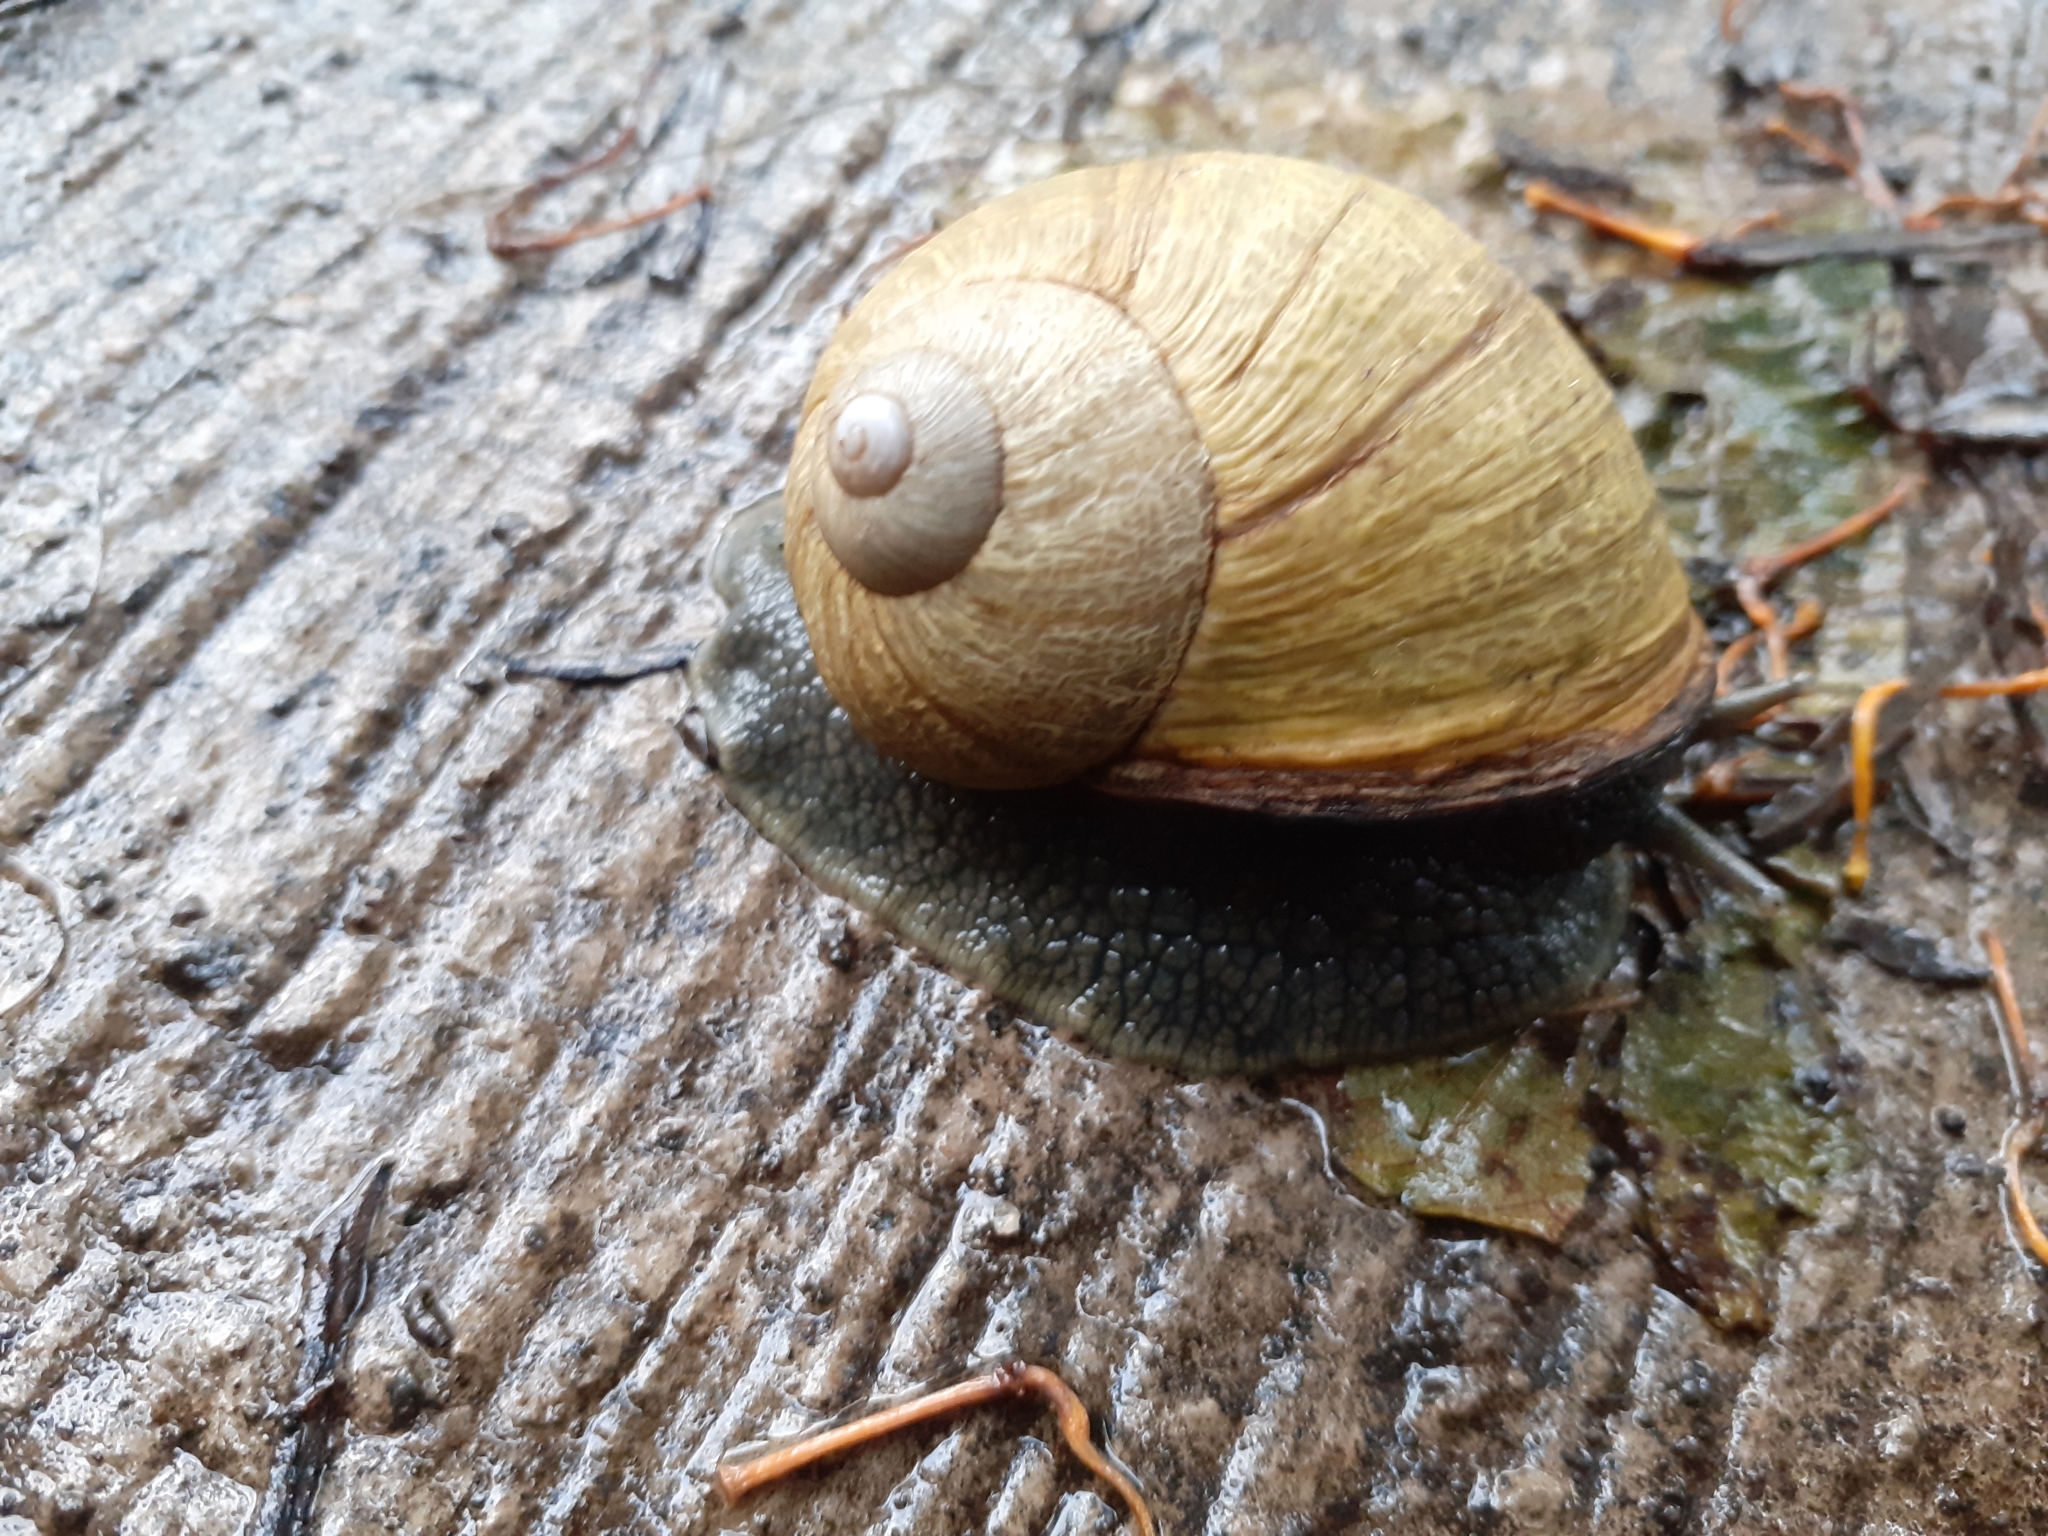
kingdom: Animalia
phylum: Mollusca
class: Gastropoda
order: Stylommatophora
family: Helicidae
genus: Cornu
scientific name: Cornu aspersum
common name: Brown garden snail
